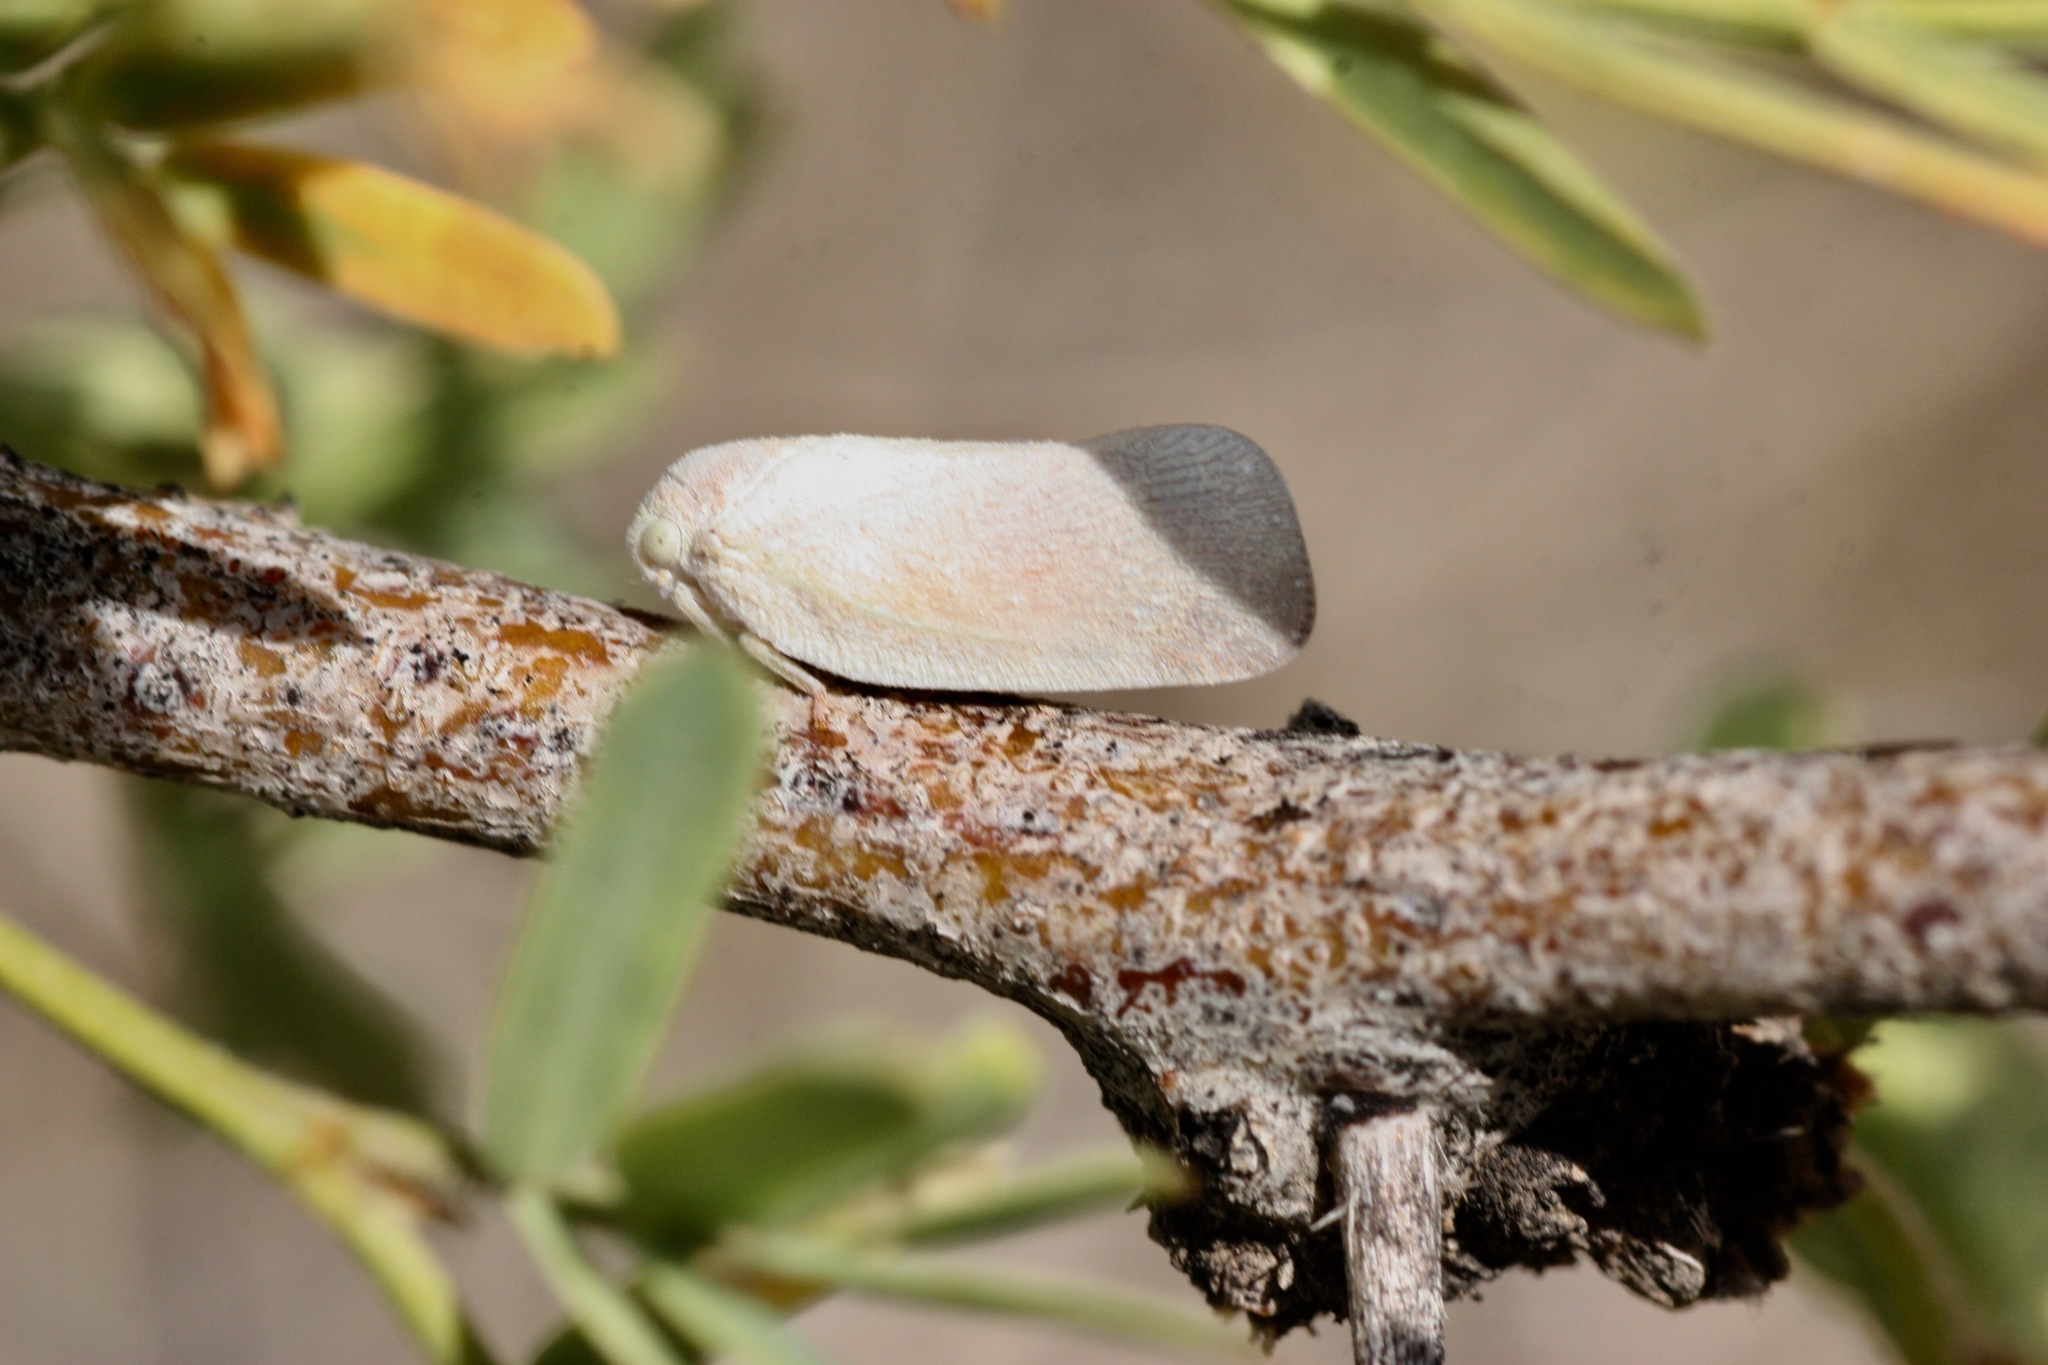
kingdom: Animalia
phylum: Arthropoda
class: Insecta
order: Hemiptera
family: Flatidae
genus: Flatormenis
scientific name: Flatormenis saucia
